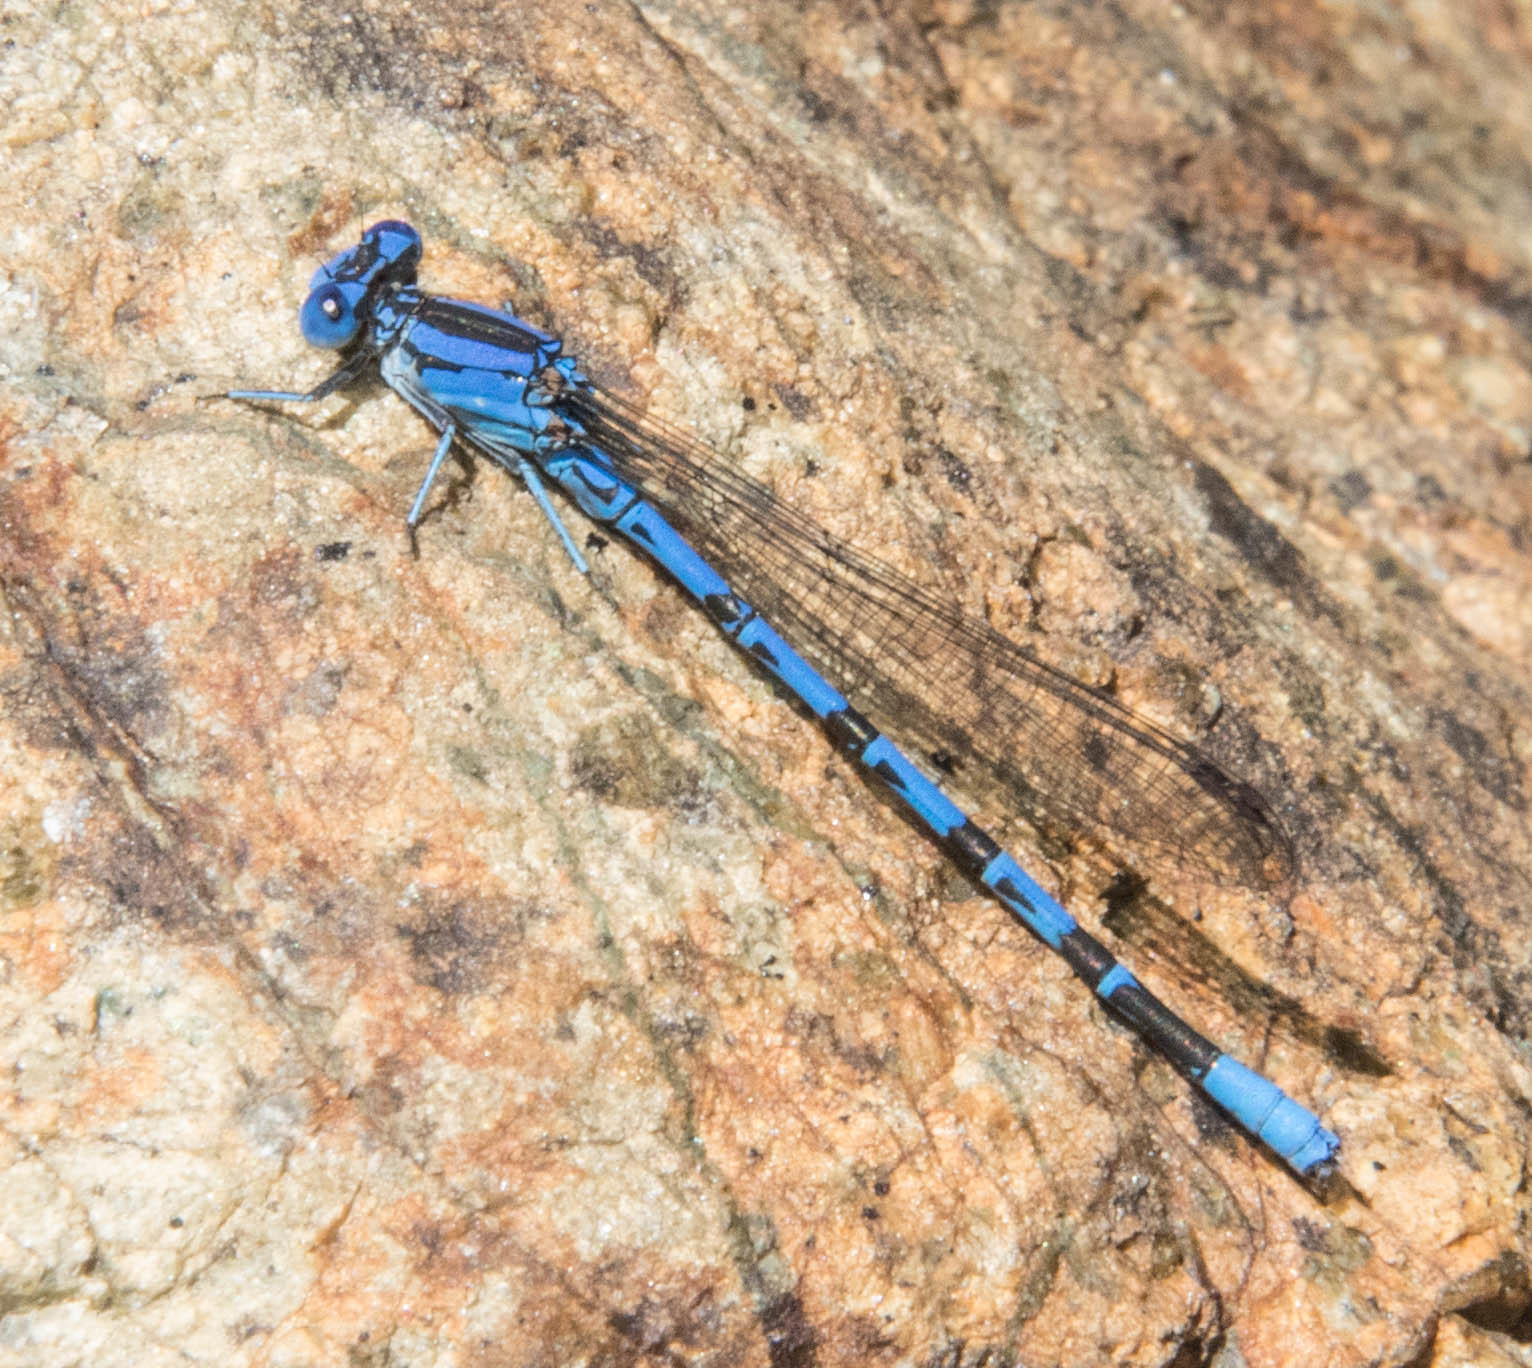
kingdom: Animalia
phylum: Arthropoda
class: Insecta
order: Odonata
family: Coenagrionidae
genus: Argia
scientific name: Argia vivida
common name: Vivid dancer
